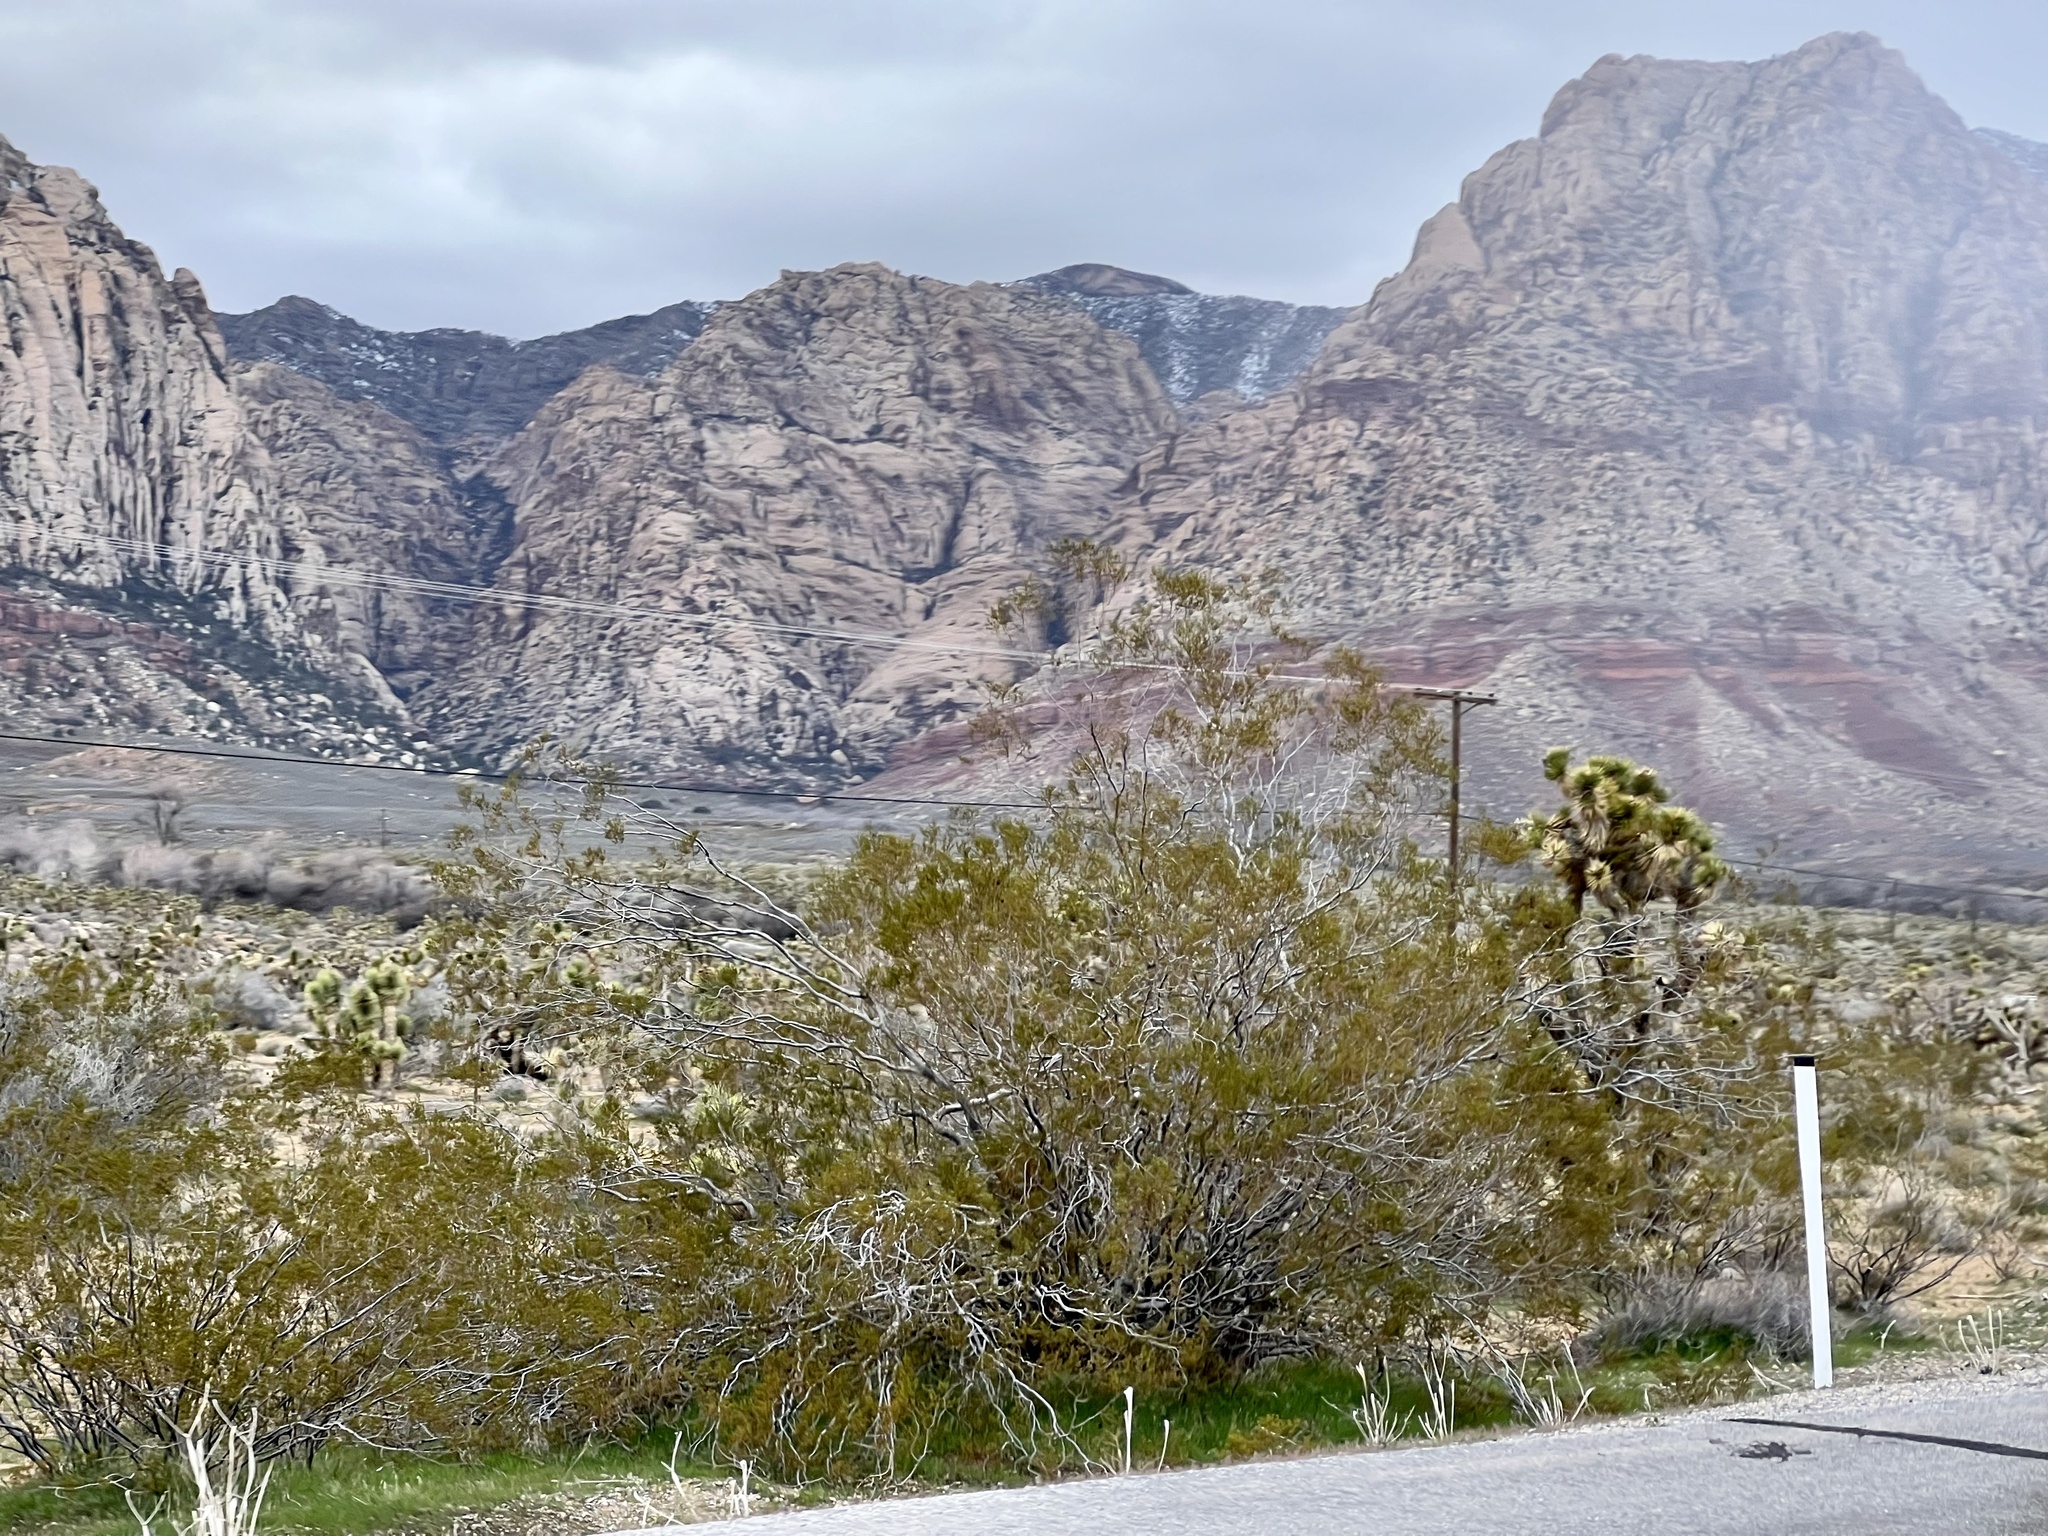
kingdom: Plantae
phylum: Tracheophyta
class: Magnoliopsida
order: Zygophyllales
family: Zygophyllaceae
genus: Larrea
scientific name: Larrea tridentata
